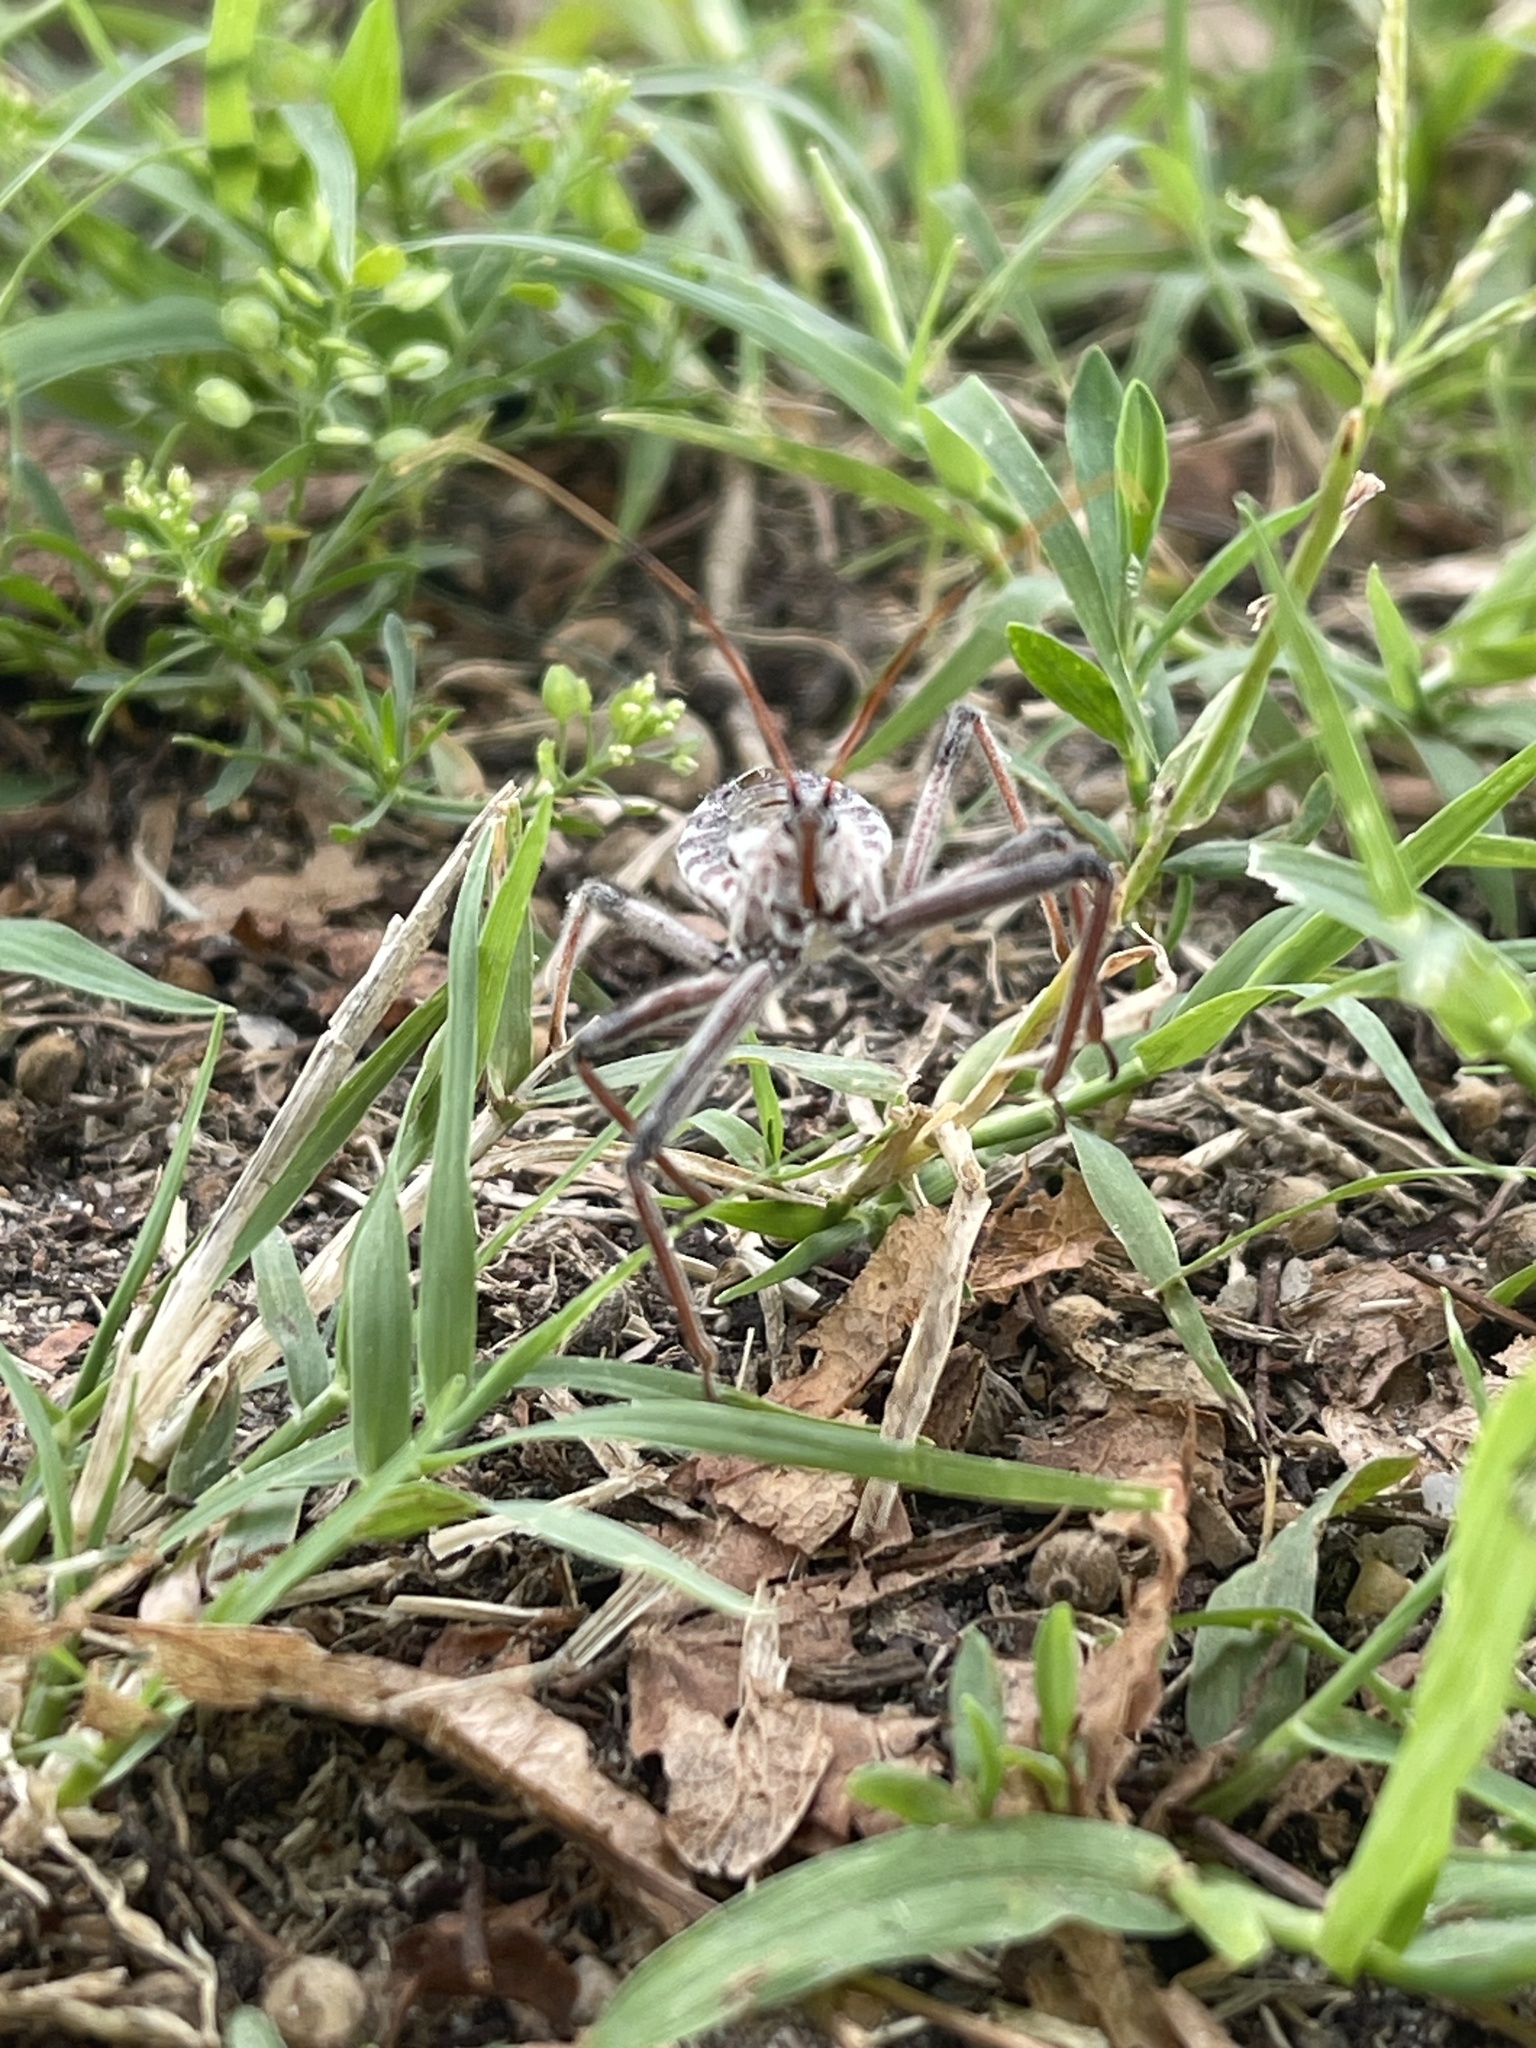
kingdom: Animalia
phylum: Arthropoda
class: Insecta
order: Hemiptera
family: Reduviidae
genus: Arilus
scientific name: Arilus cristatus
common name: North american wheel bug
